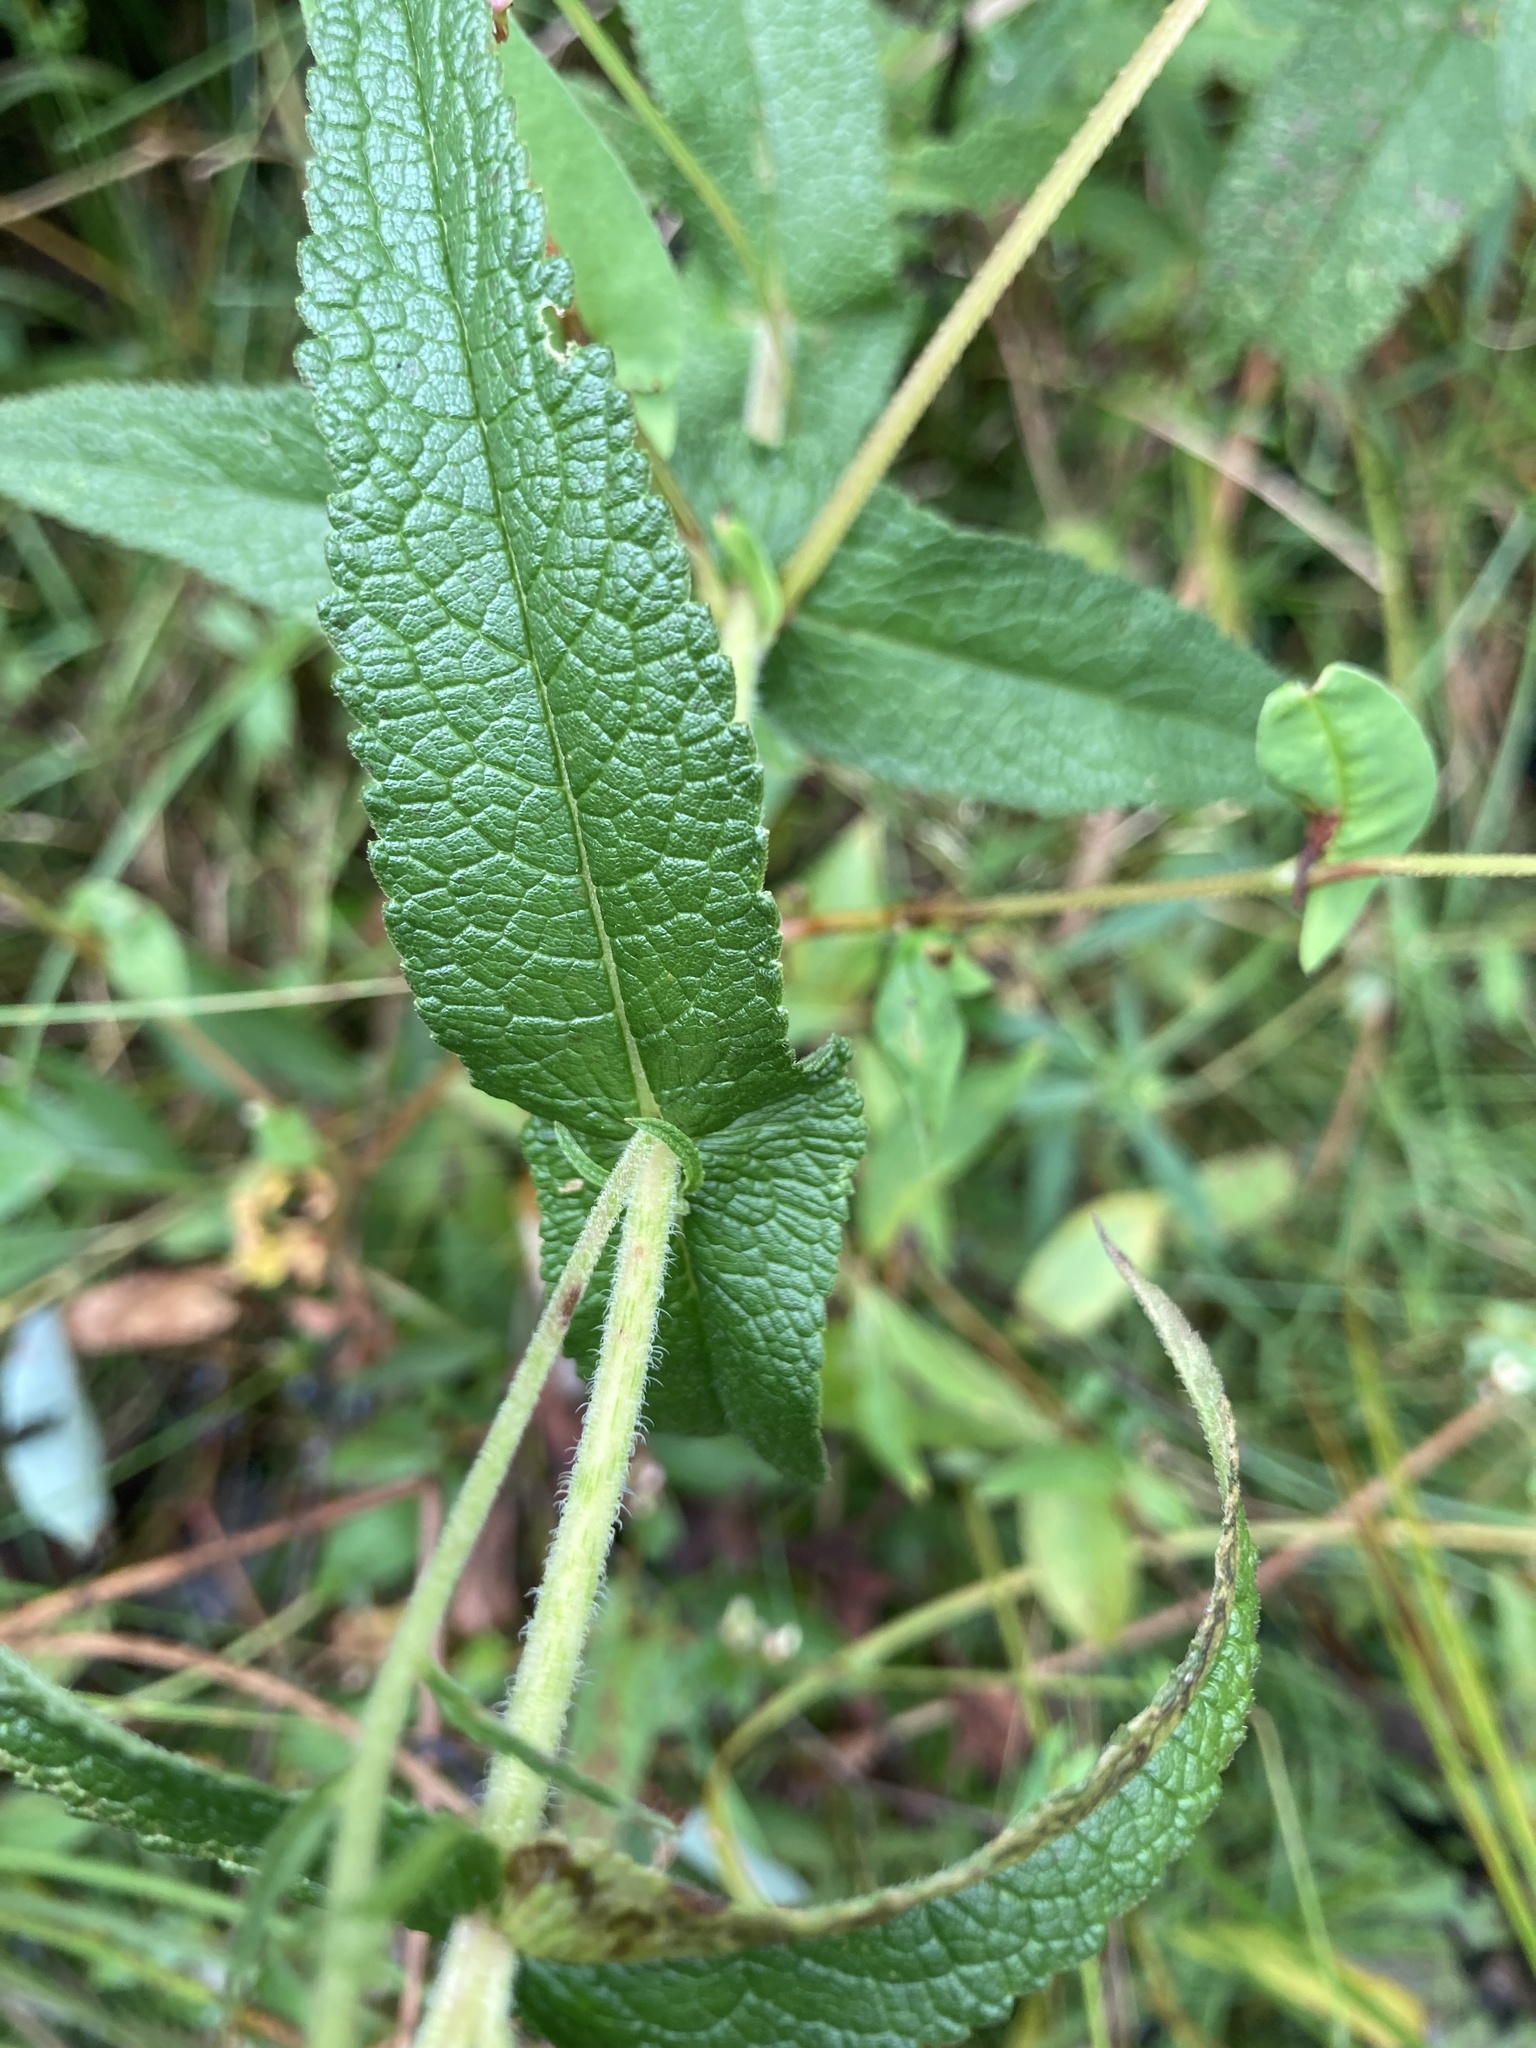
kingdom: Plantae
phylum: Tracheophyta
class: Magnoliopsida
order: Asterales
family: Asteraceae
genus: Eupatorium
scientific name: Eupatorium perfoliatum
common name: Boneset
